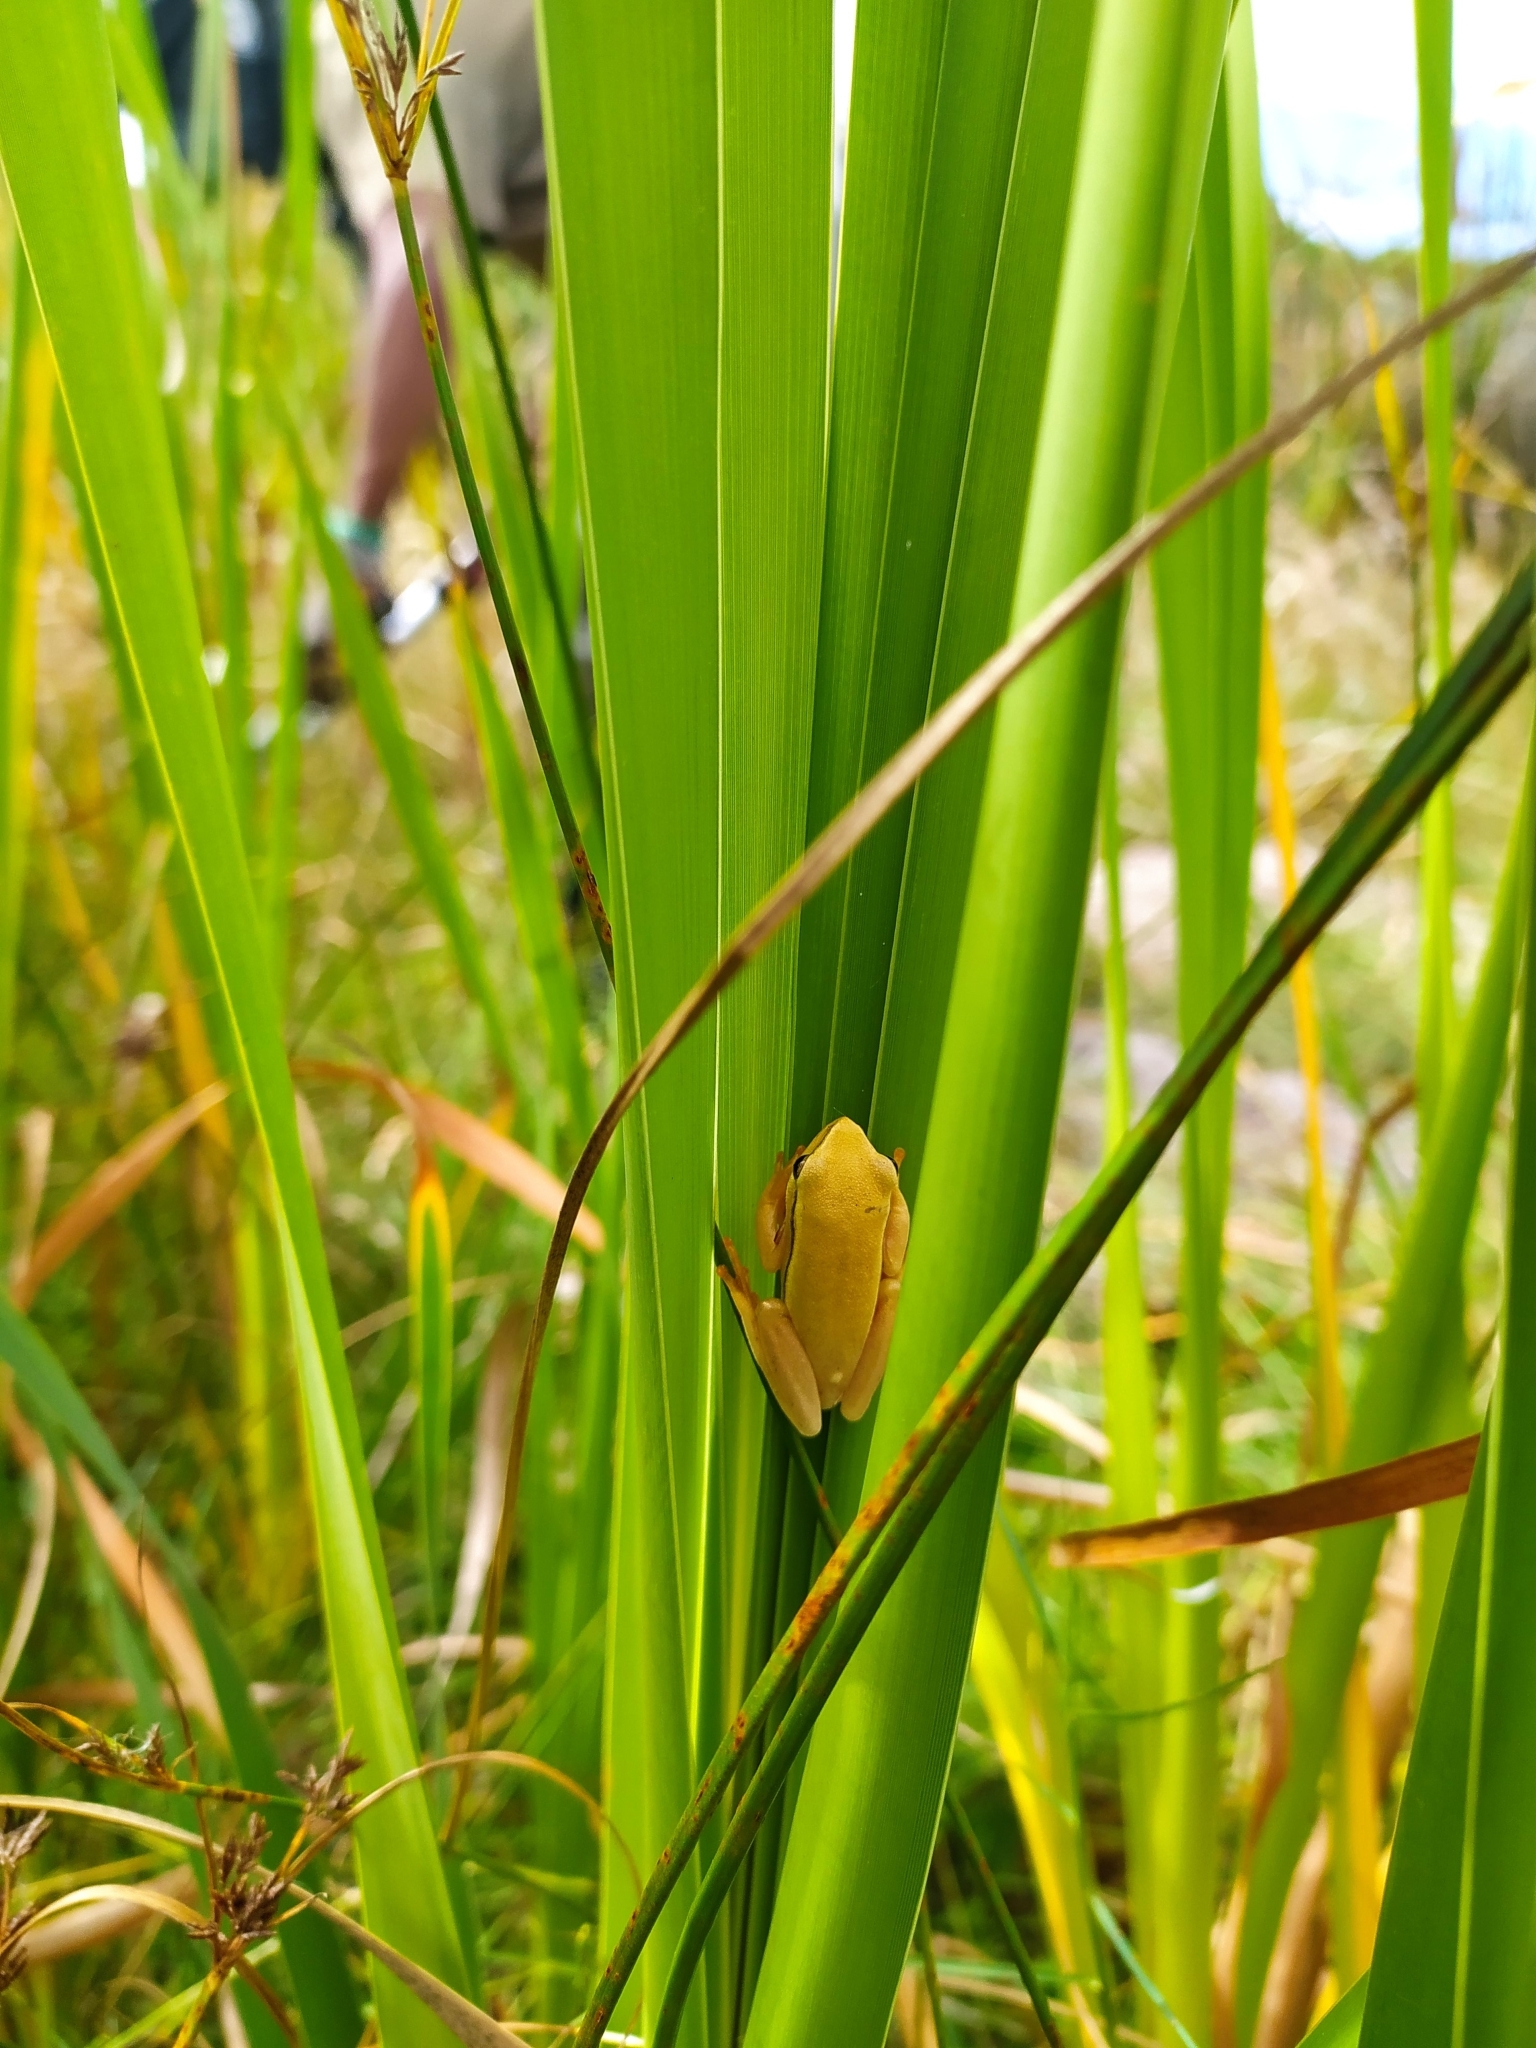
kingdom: Animalia
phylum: Chordata
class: Amphibia
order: Anura
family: Hyperoliidae
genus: Hyperolius
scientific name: Hyperolius horstockii
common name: Arum lily frog
